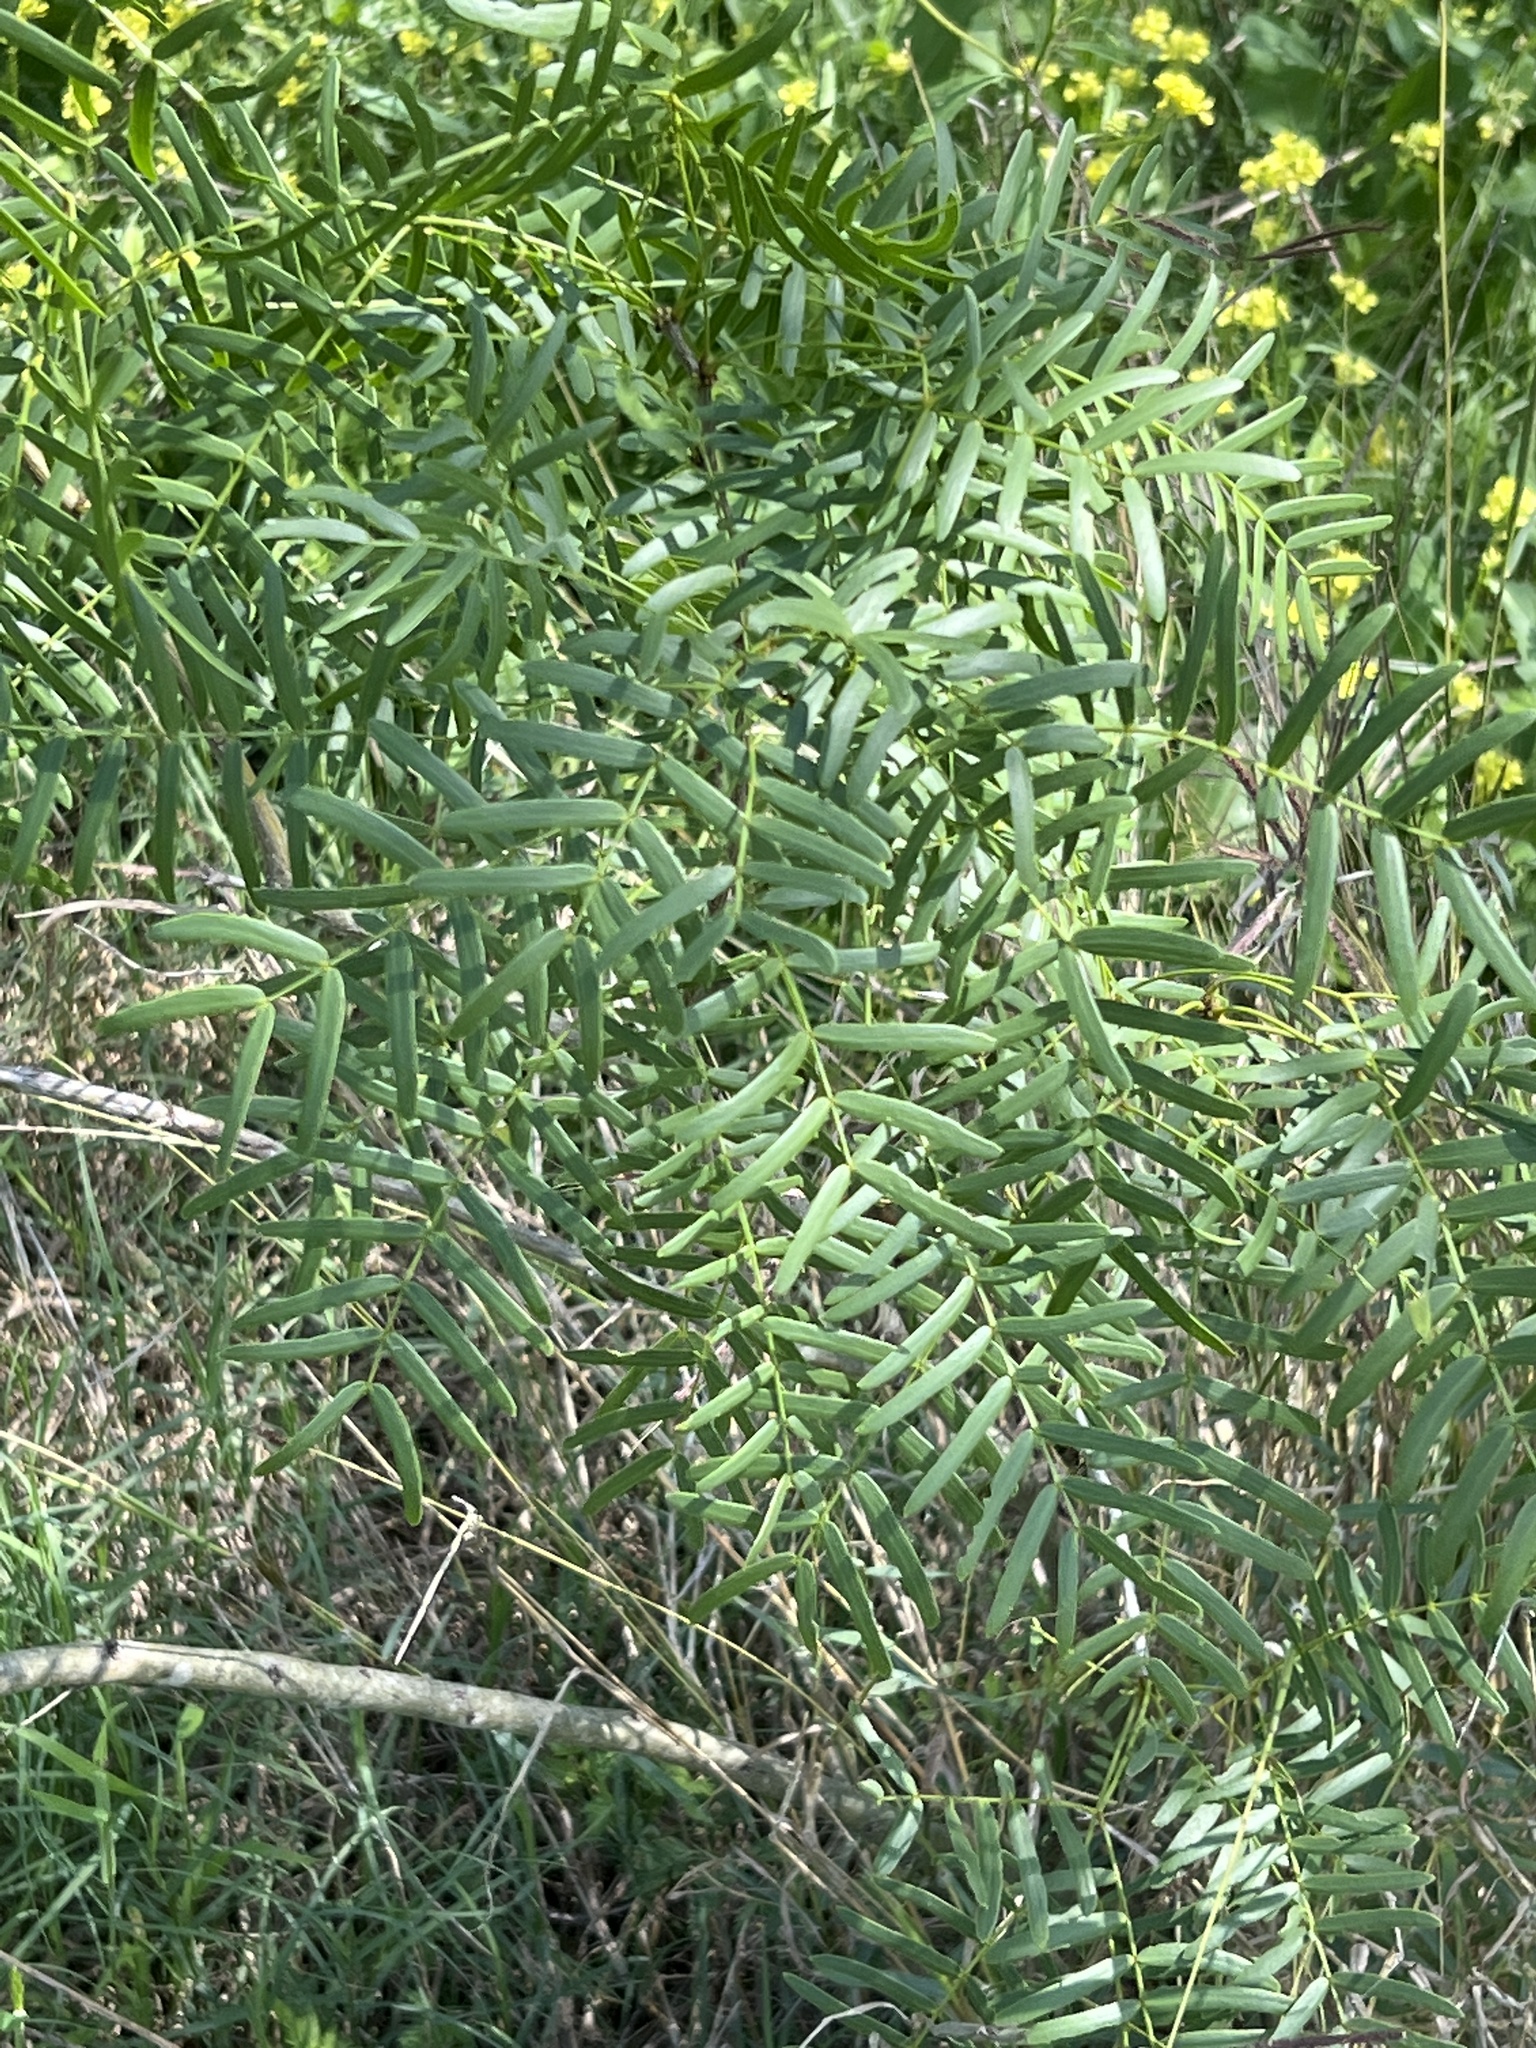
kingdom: Plantae
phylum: Tracheophyta
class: Magnoliopsida
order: Fabales
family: Fabaceae
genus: Prosopis
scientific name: Prosopis glandulosa
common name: Honey mesquite
